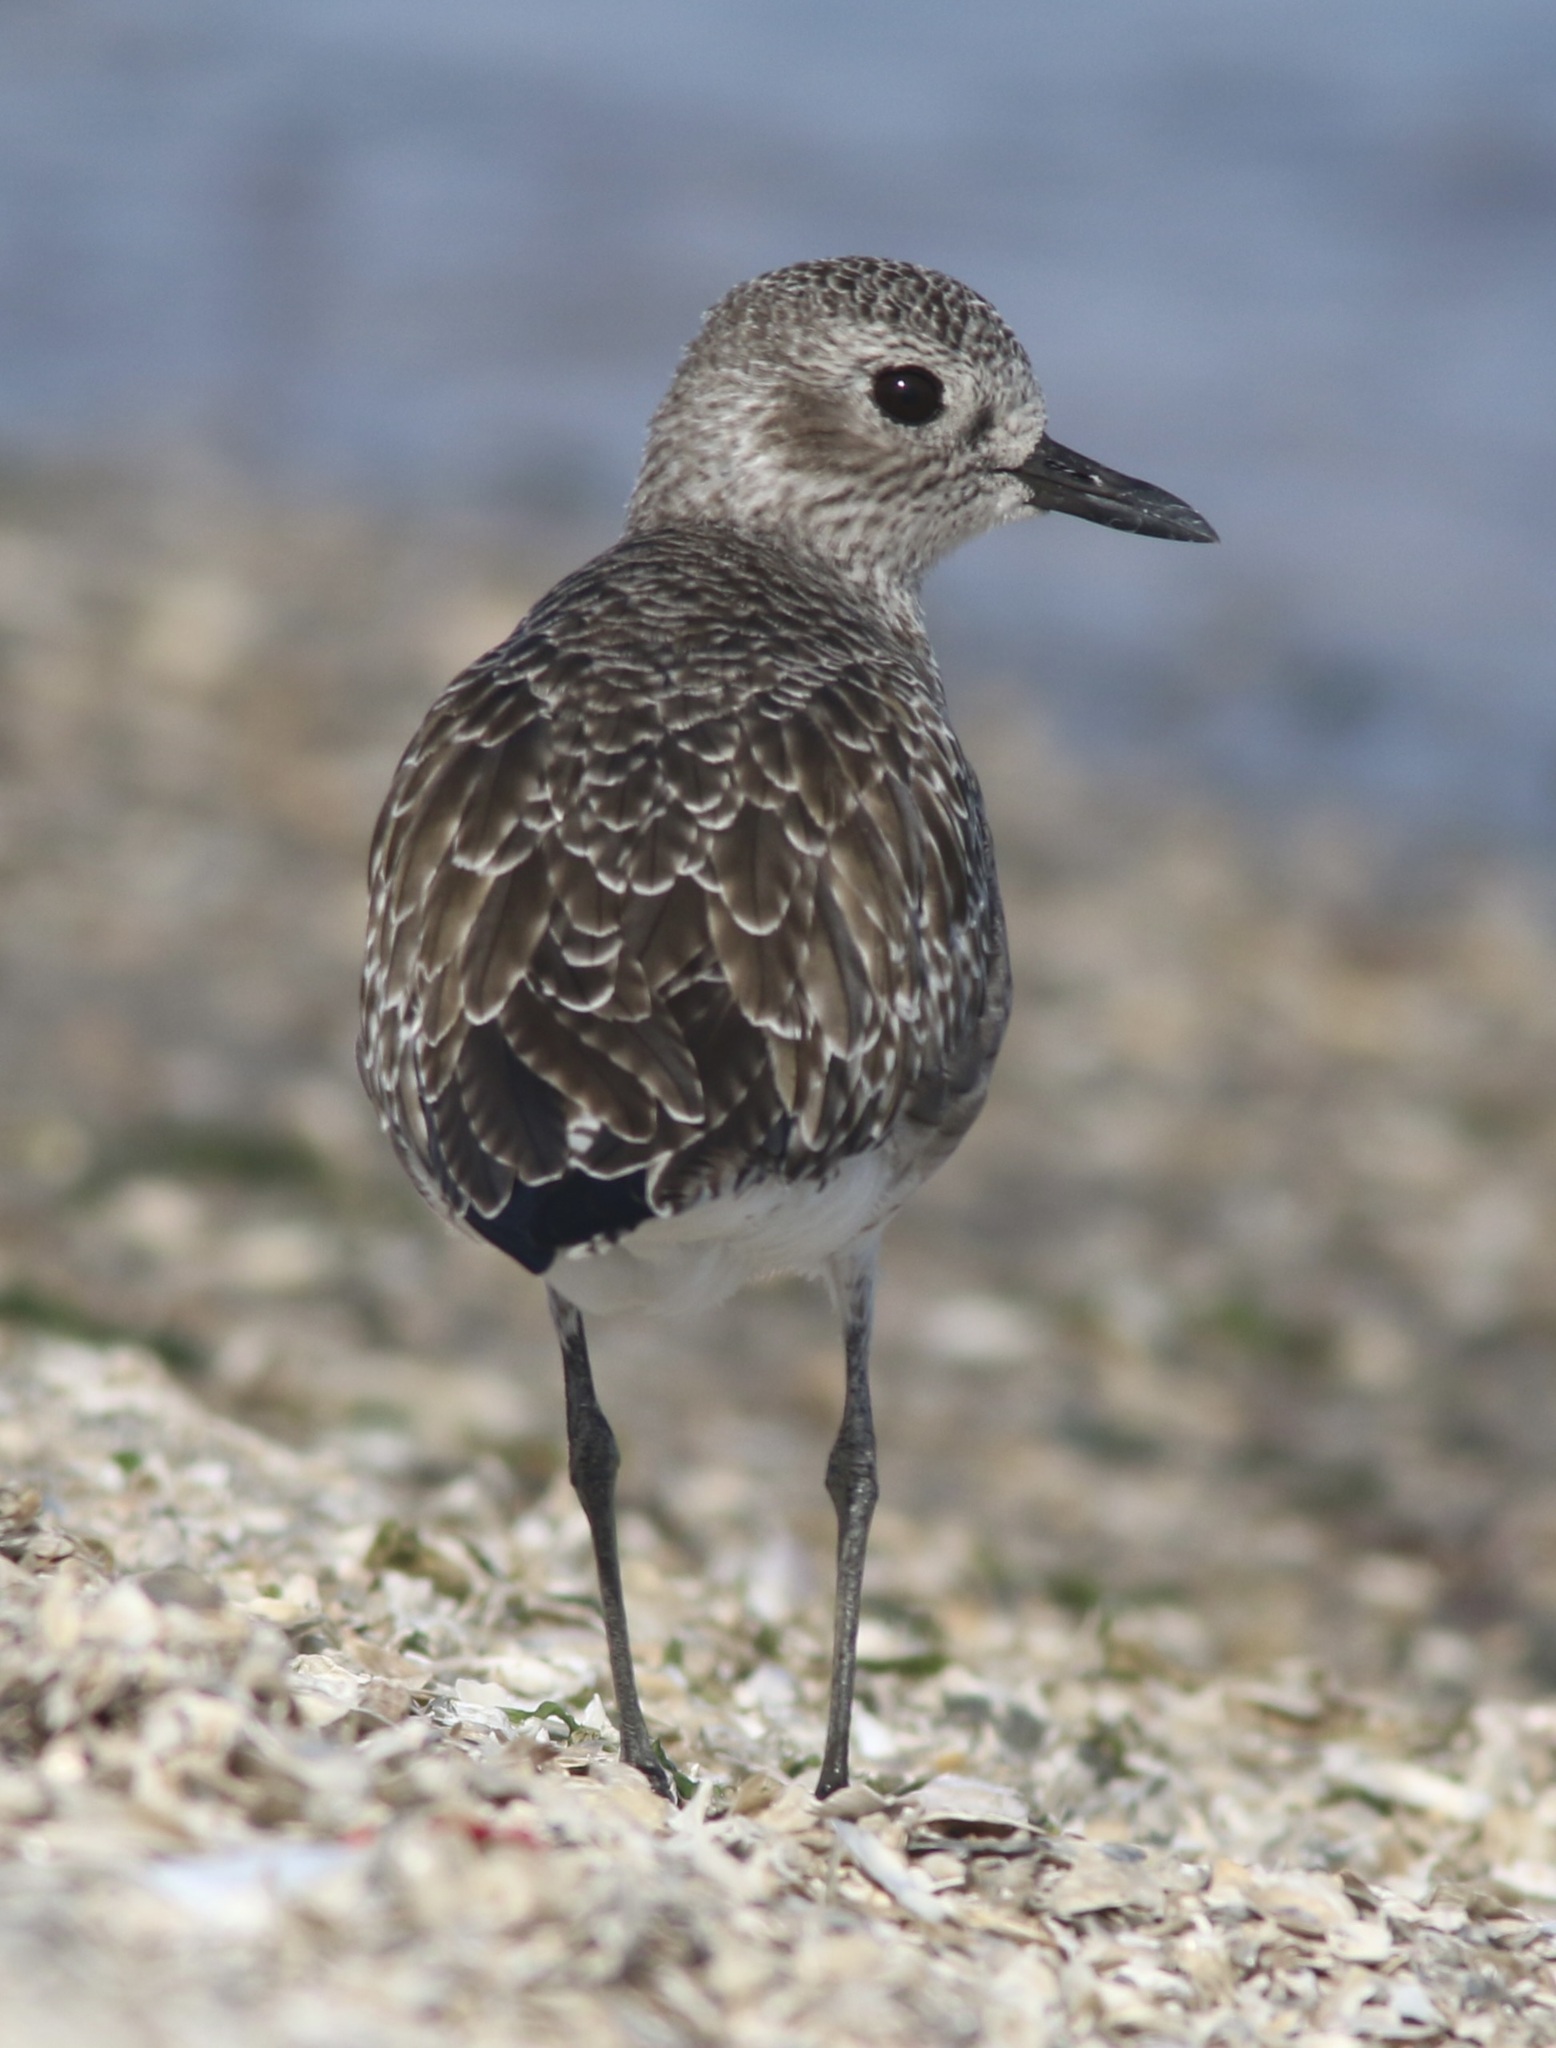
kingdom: Animalia
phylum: Chordata
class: Aves
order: Charadriiformes
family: Charadriidae
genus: Pluvialis
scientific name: Pluvialis squatarola
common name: Grey plover
